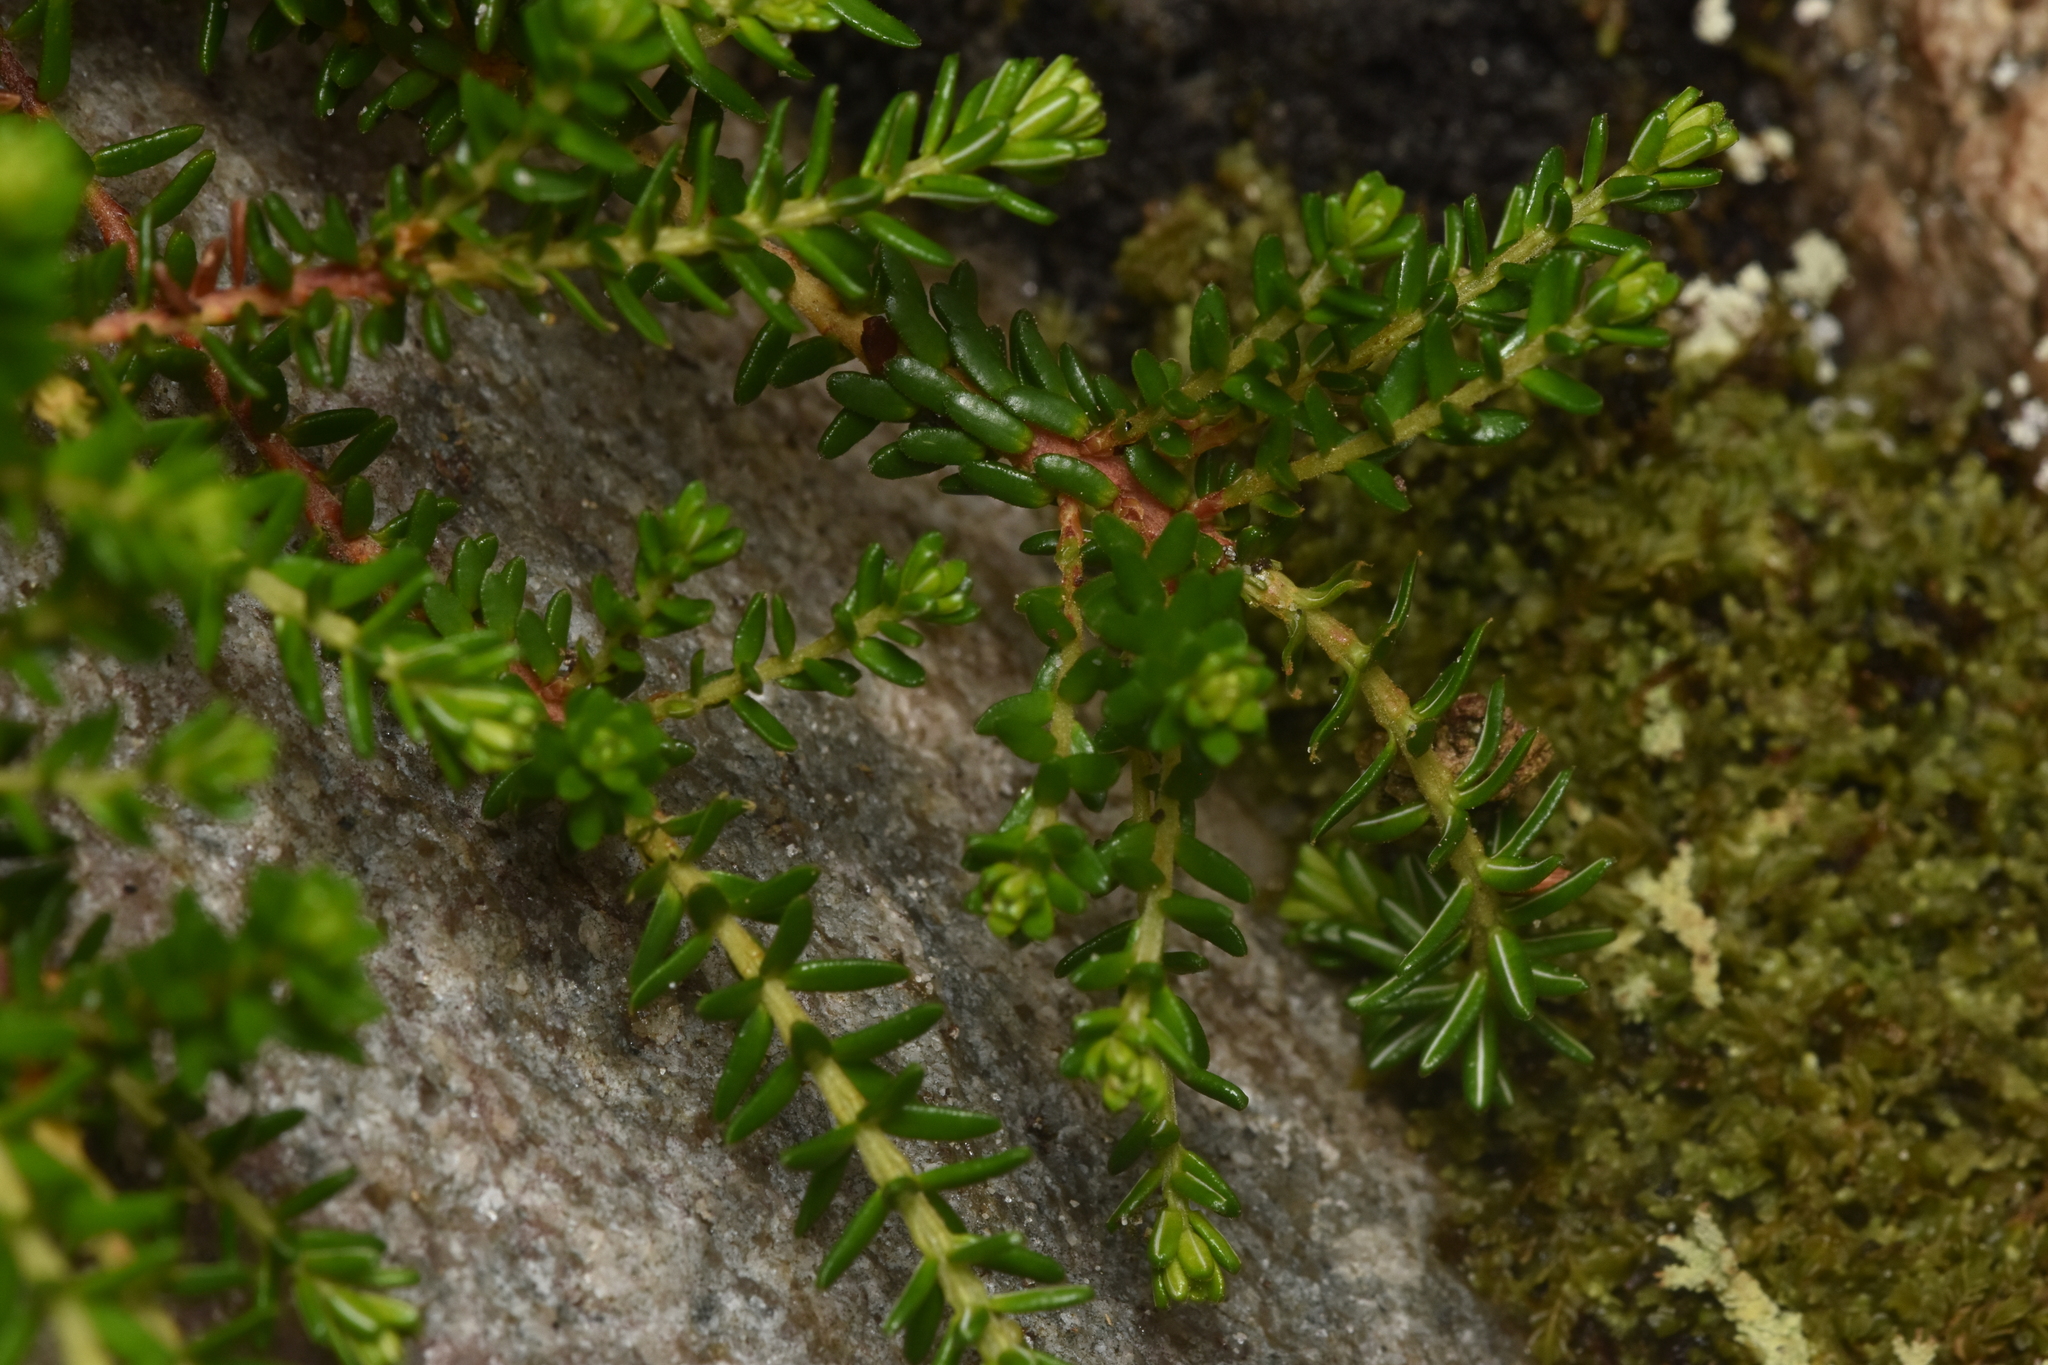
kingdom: Plantae
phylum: Tracheophyta
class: Magnoliopsida
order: Ericales
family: Ericaceae
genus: Empetrum
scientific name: Empetrum nigrum
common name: Black crowberry
